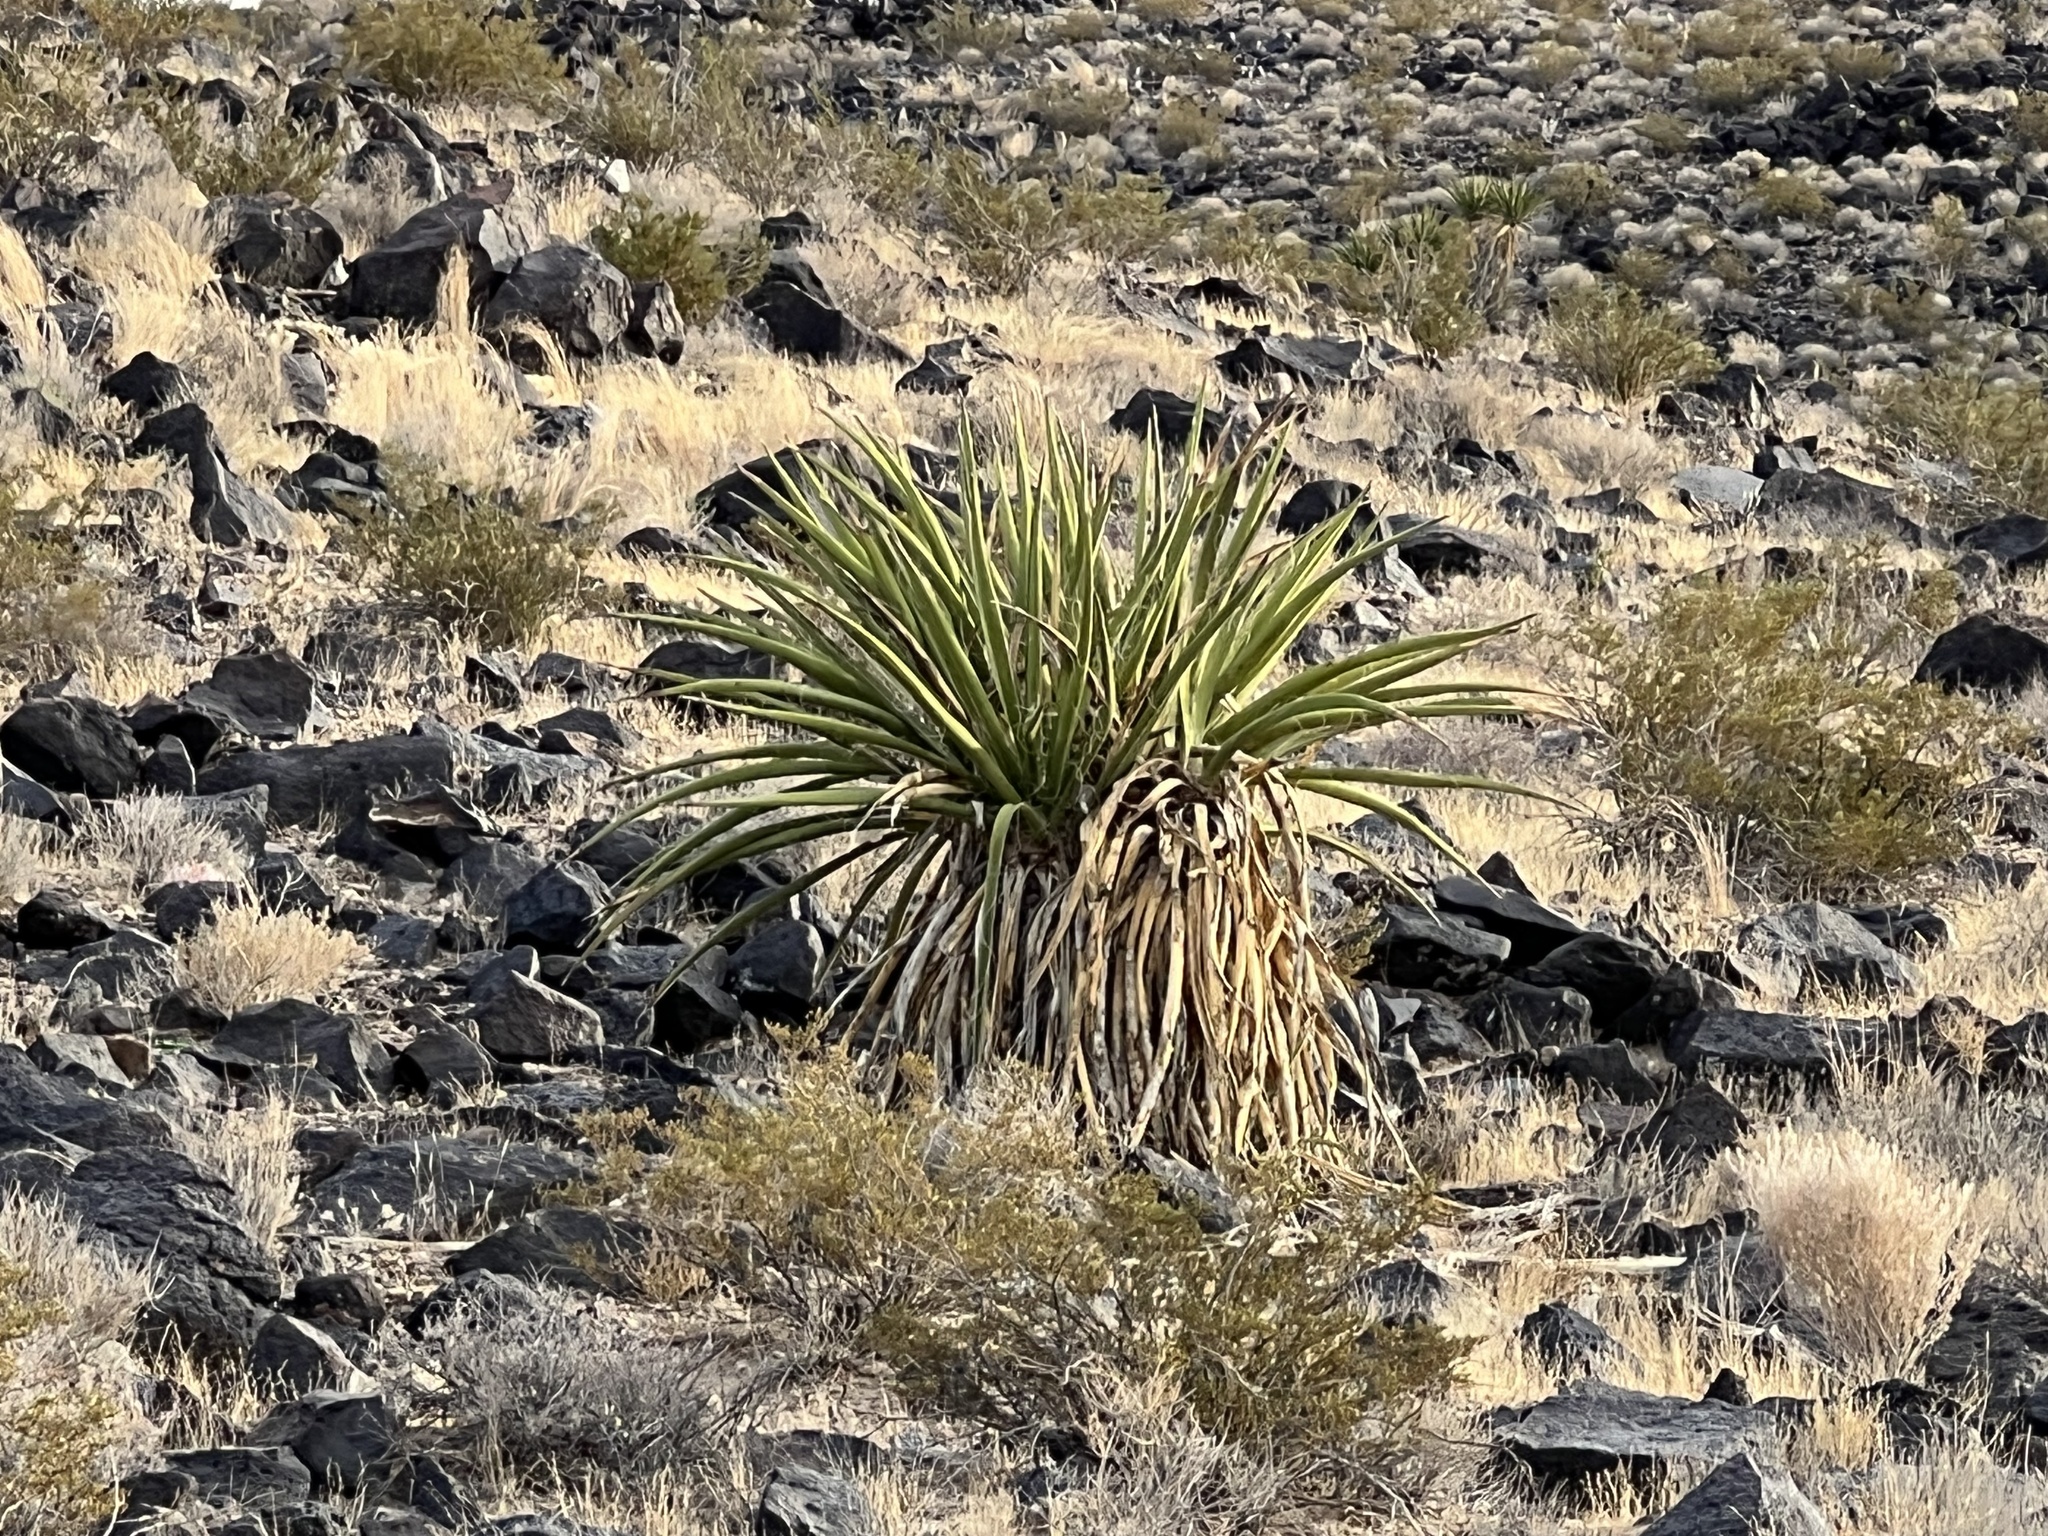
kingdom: Plantae
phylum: Tracheophyta
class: Liliopsida
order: Asparagales
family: Asparagaceae
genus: Yucca
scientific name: Yucca schidigera
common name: Mojave yucca
